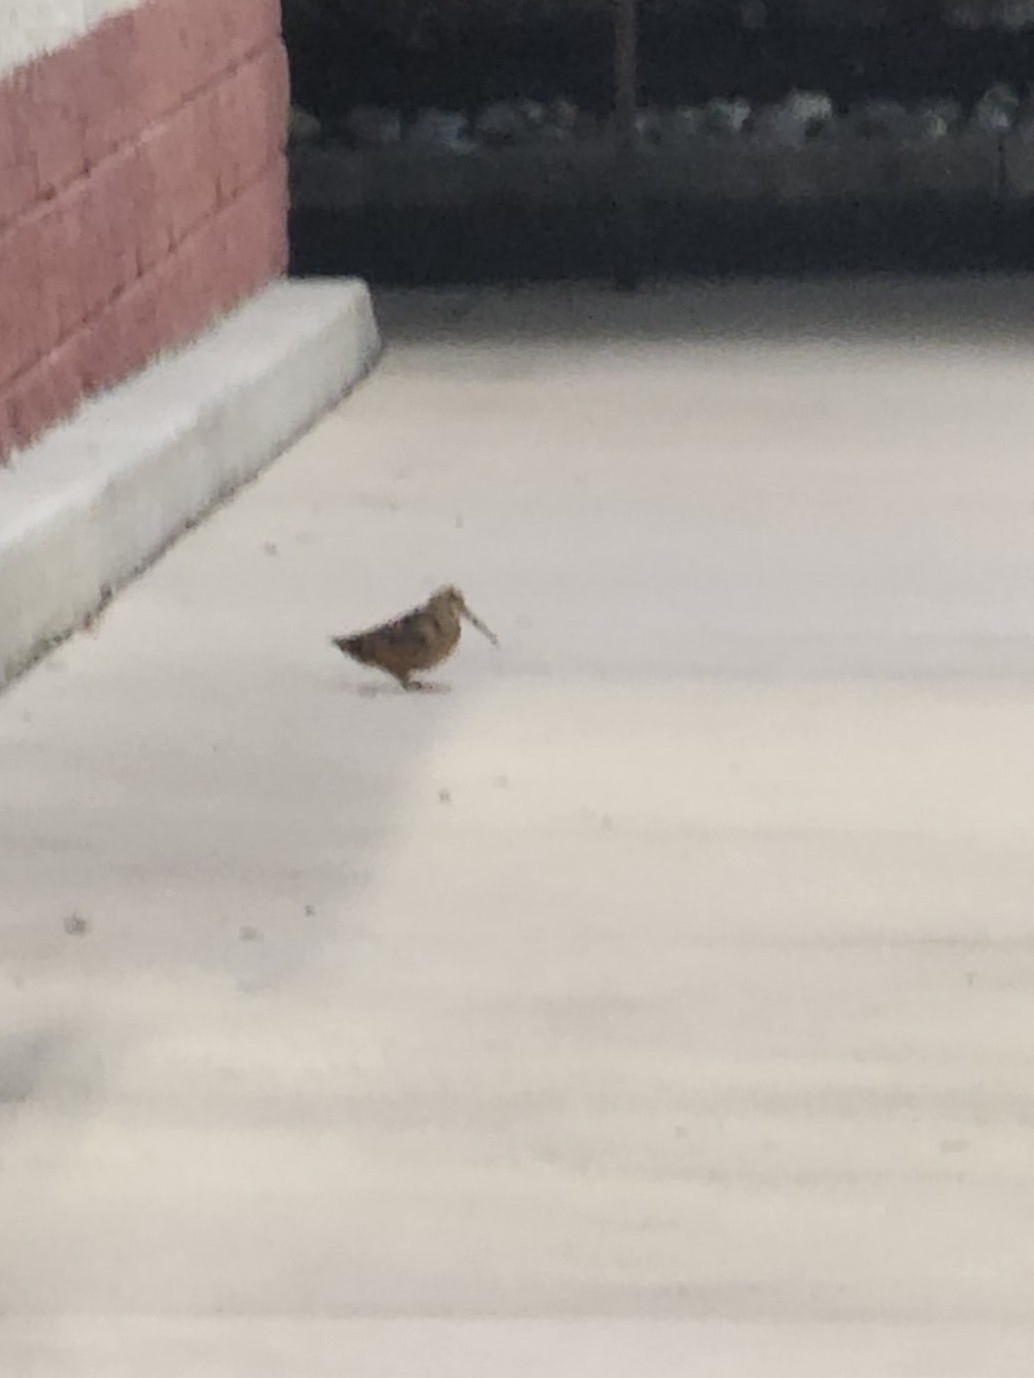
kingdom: Animalia
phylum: Chordata
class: Aves
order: Charadriiformes
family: Scolopacidae
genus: Scolopax
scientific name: Scolopax minor
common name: American woodcock
